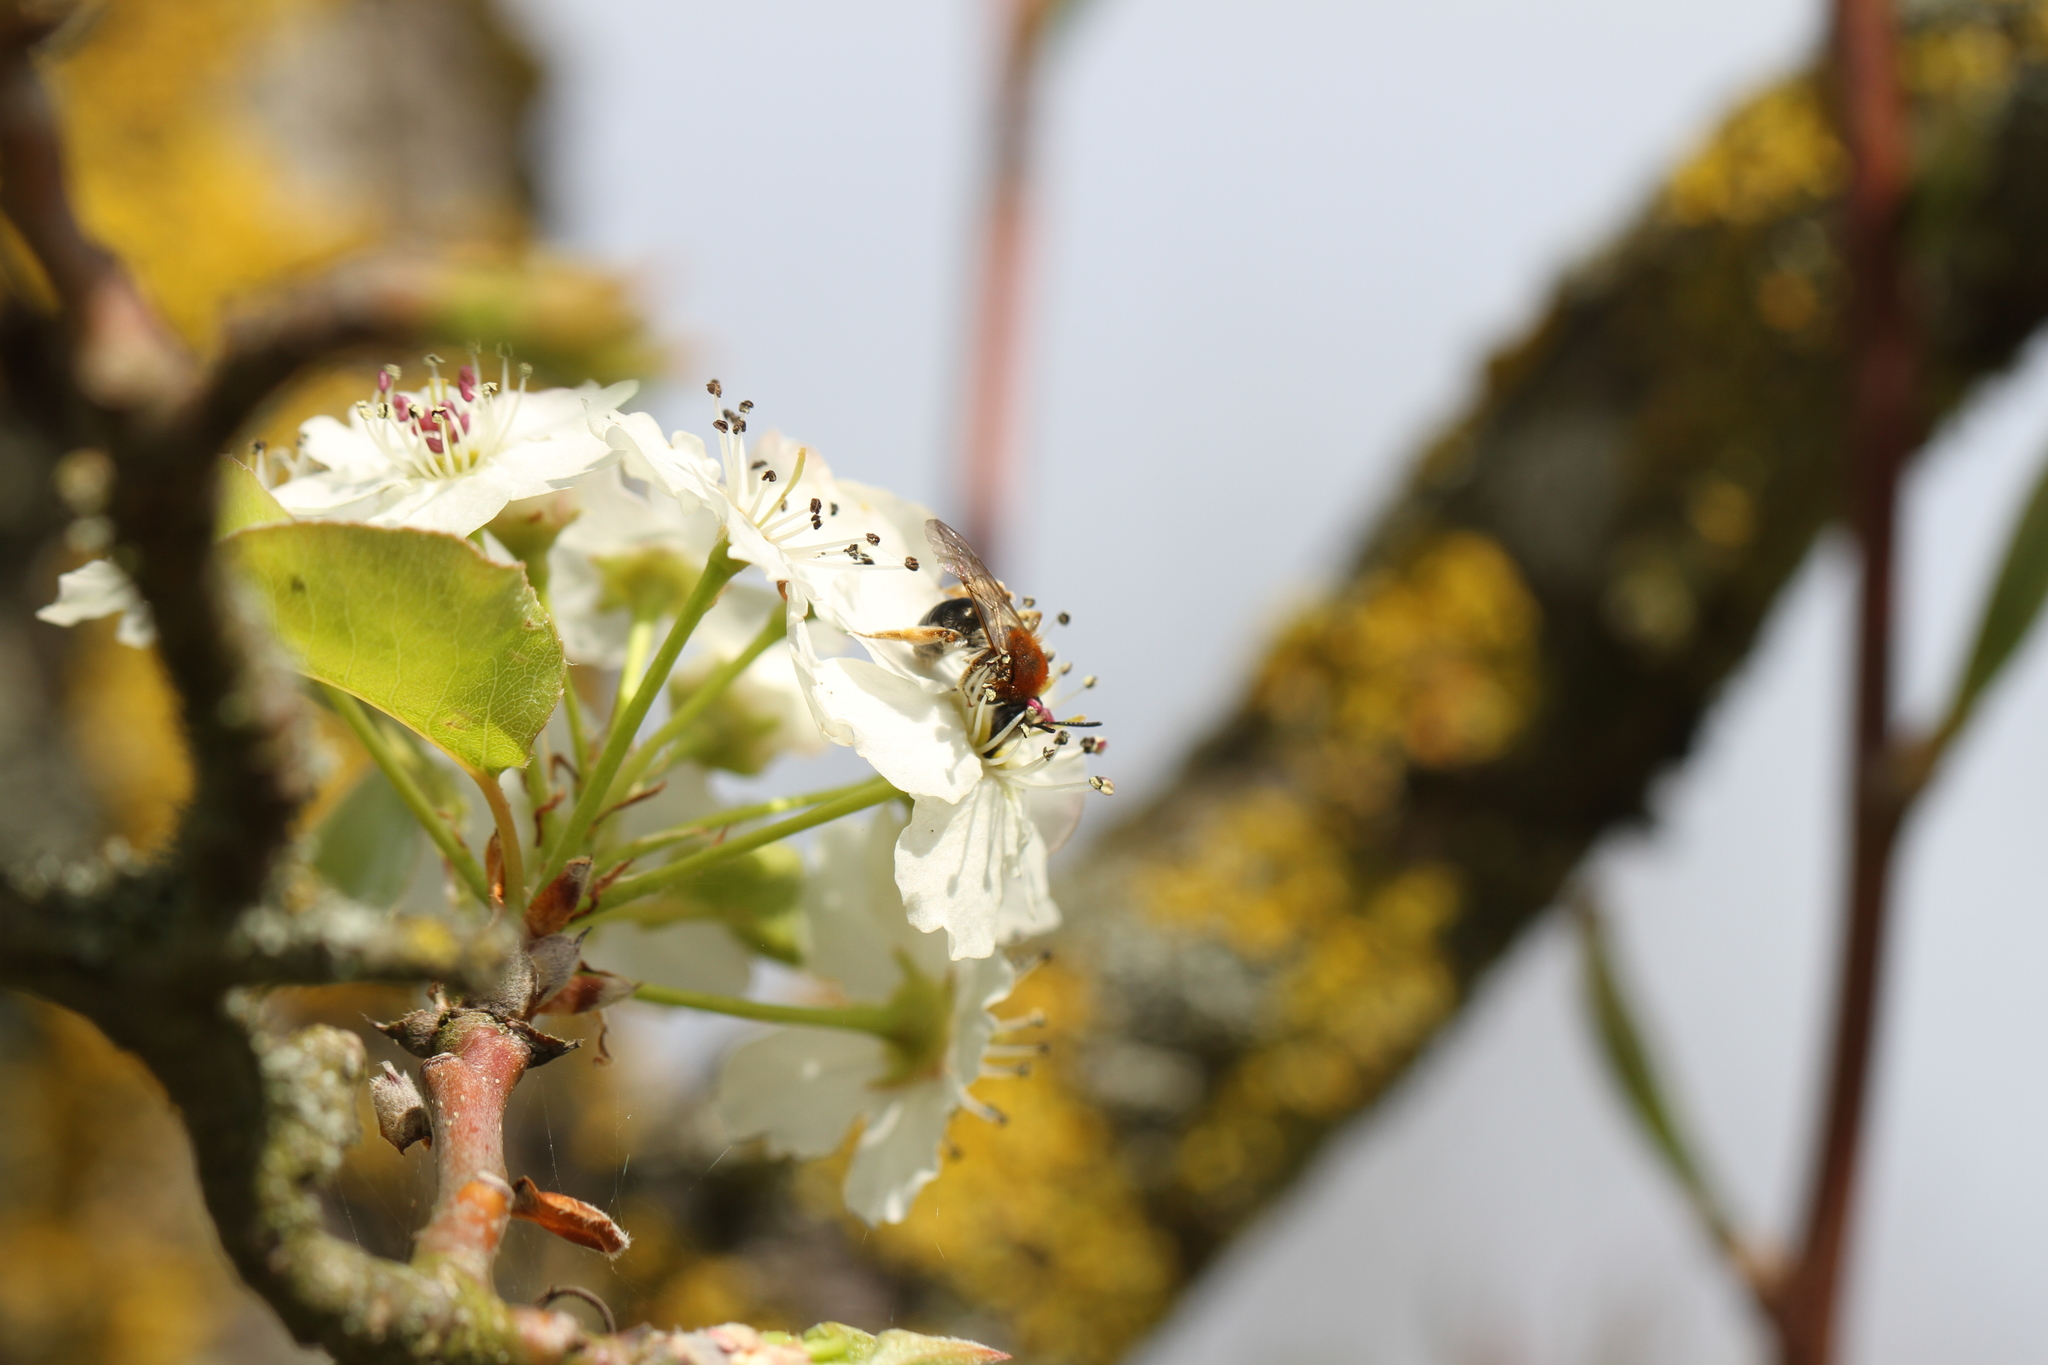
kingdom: Animalia
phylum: Arthropoda
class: Insecta
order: Hymenoptera
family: Andrenidae
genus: Andrena
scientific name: Andrena haemorrhoa
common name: Early mining bee
